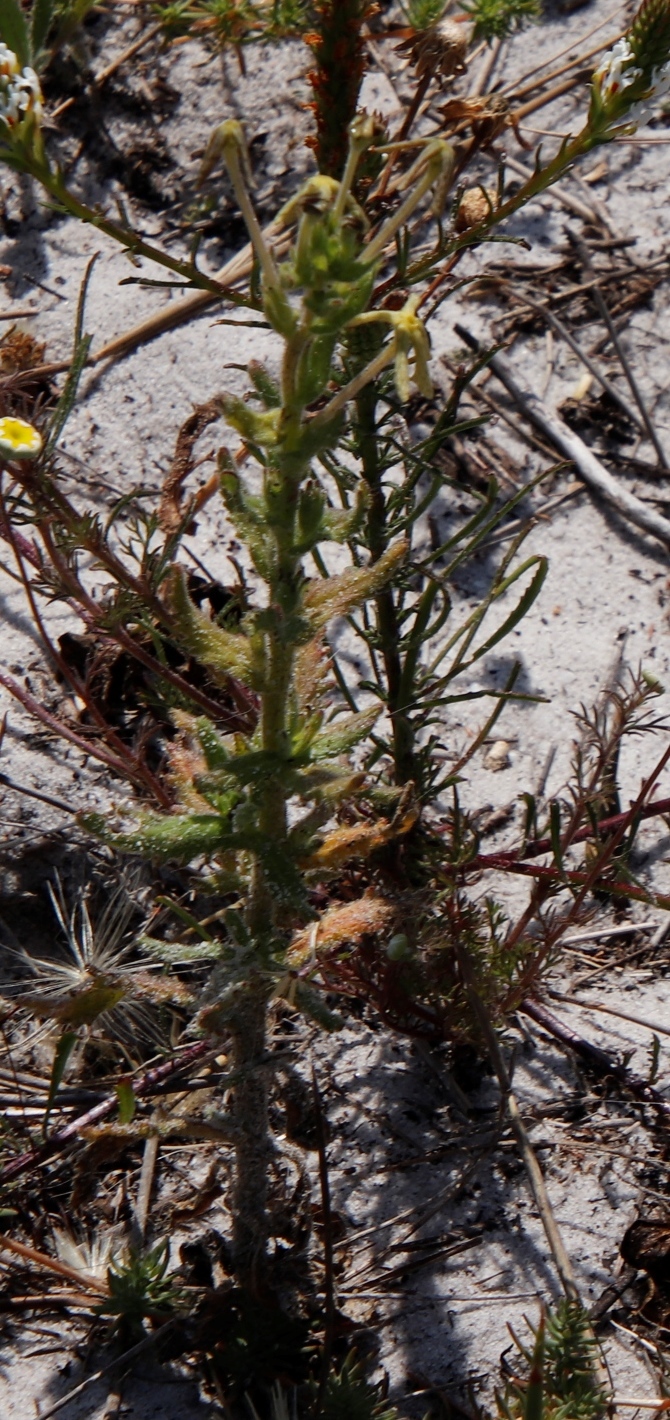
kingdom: Plantae
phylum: Tracheophyta
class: Magnoliopsida
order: Lamiales
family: Scrophulariaceae
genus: Lyperia
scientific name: Lyperia tristis
